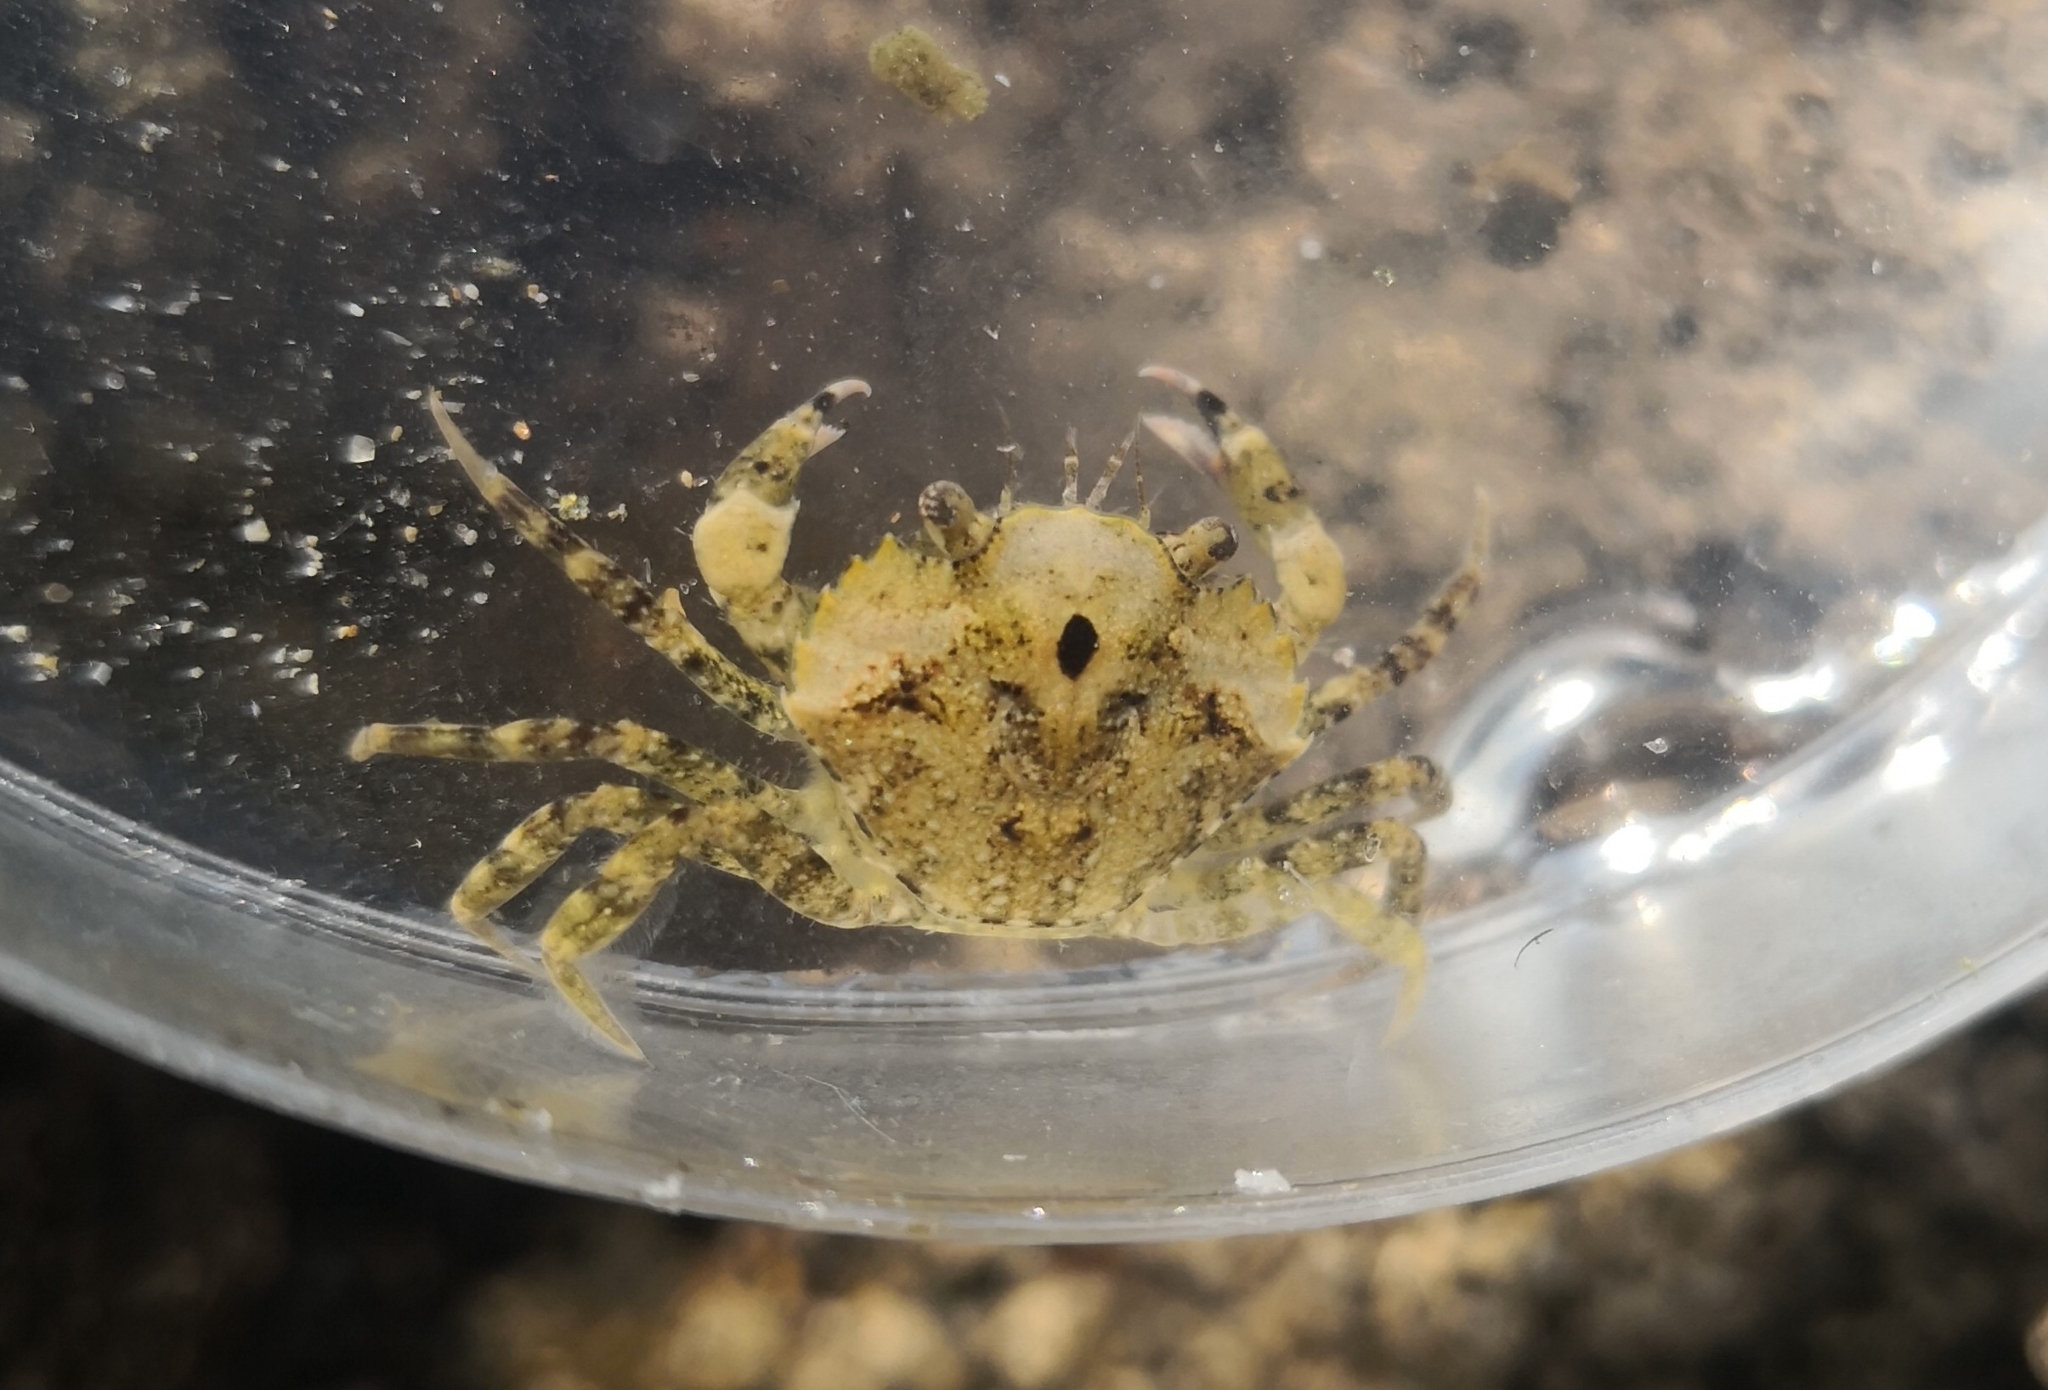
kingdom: Animalia
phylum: Arthropoda
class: Malacostraca
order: Decapoda
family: Carcinidae
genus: Carcinus
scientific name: Carcinus maenas
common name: European green crab
